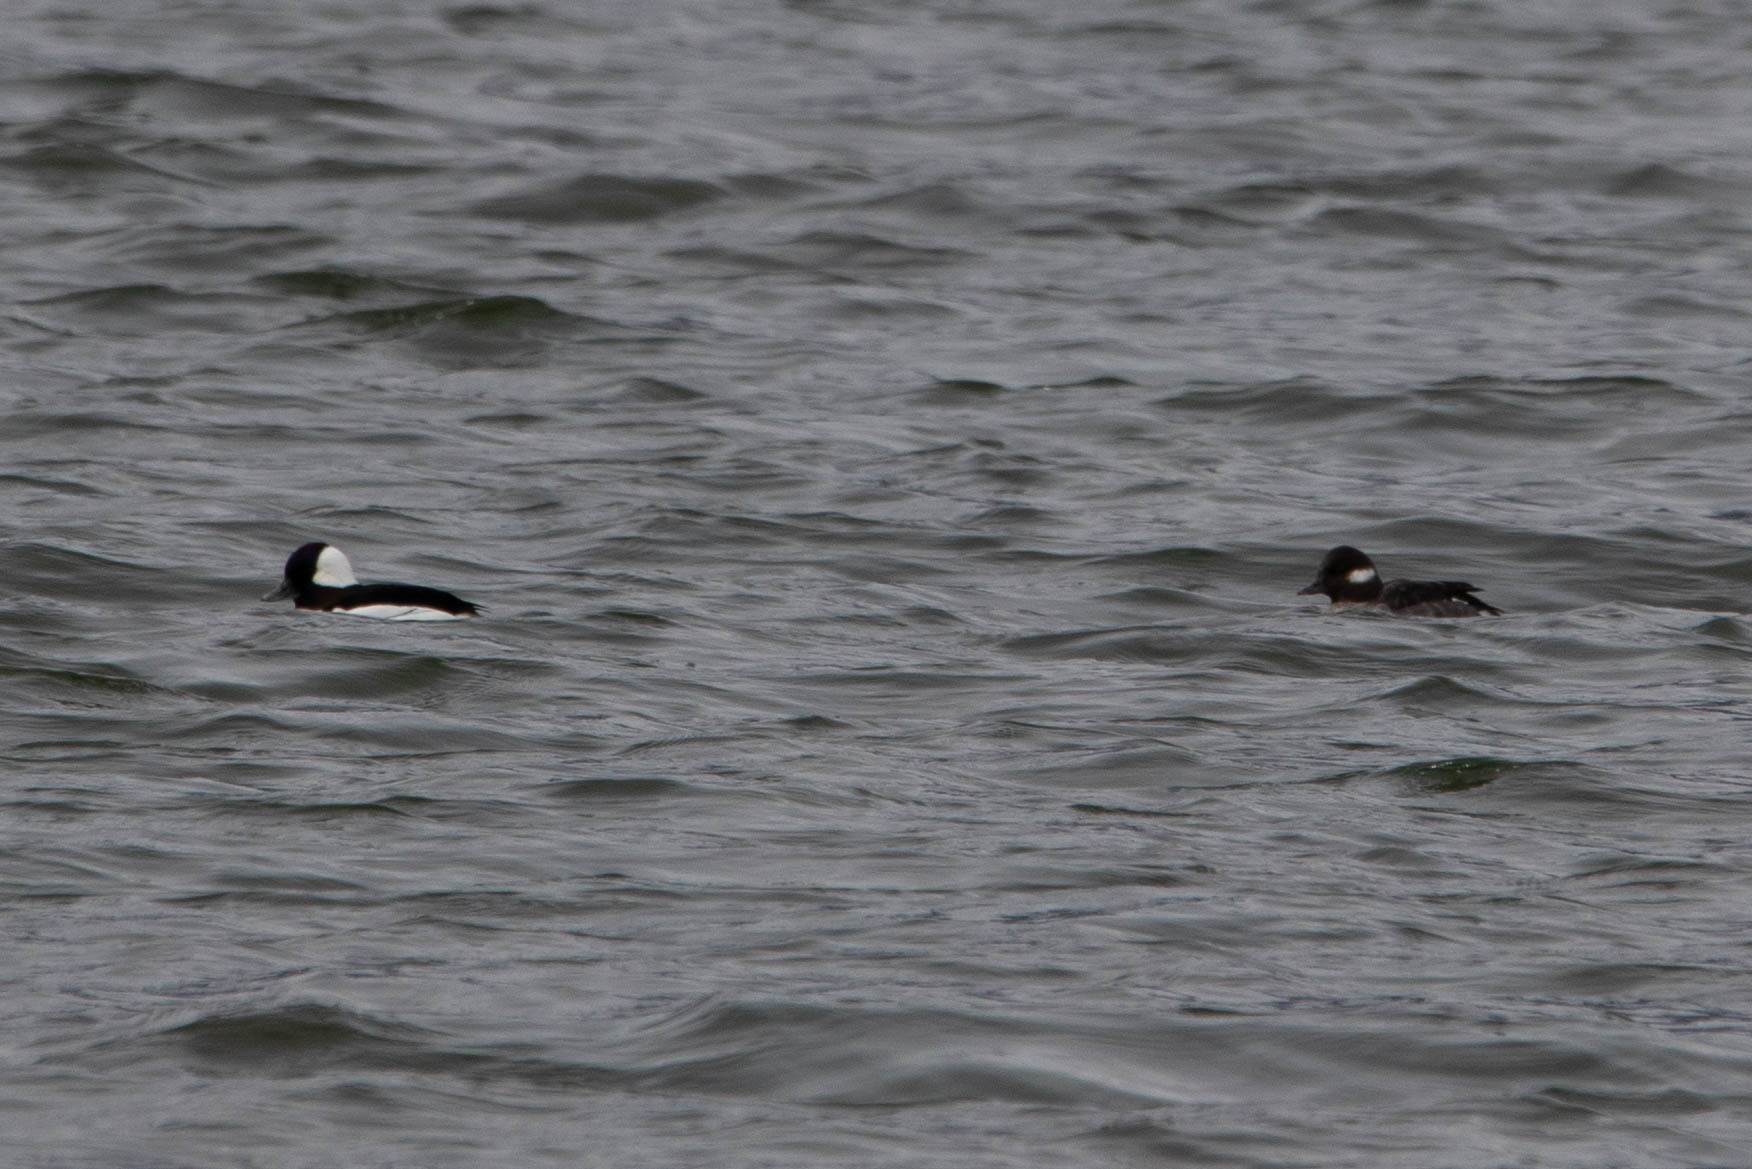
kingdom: Animalia
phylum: Chordata
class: Aves
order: Anseriformes
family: Anatidae
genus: Bucephala
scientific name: Bucephala albeola
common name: Bufflehead
